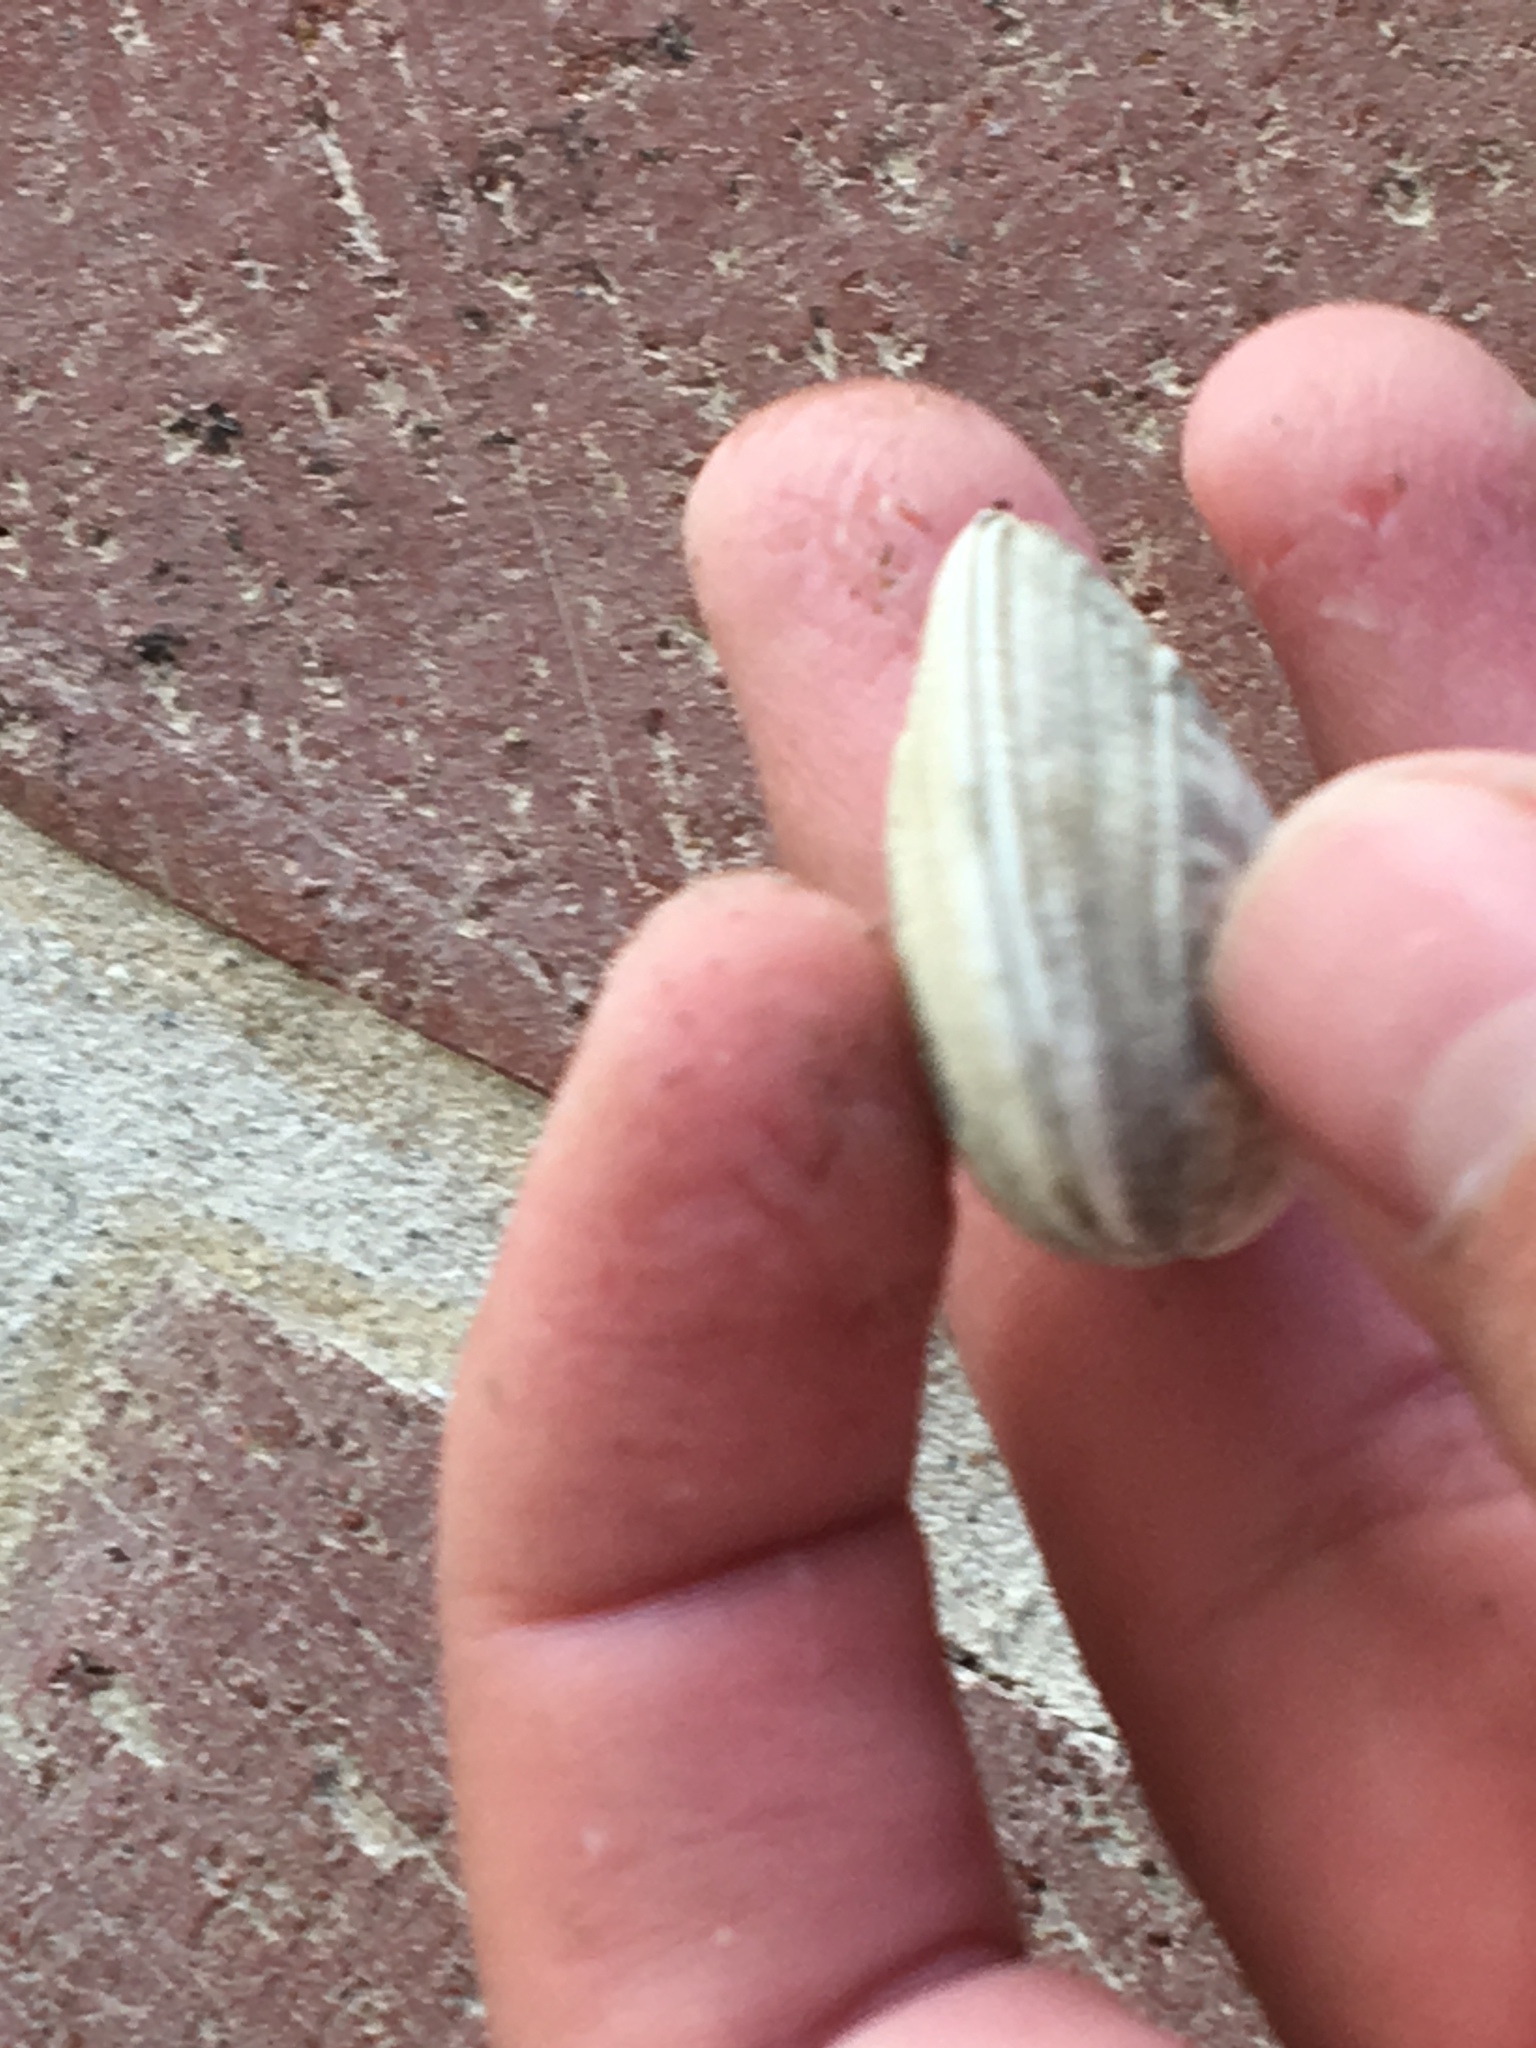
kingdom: Animalia
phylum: Mollusca
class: Bivalvia
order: Venerida
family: Veneridae
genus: Ruditapes
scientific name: Ruditapes philippinarum
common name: Manila clam
